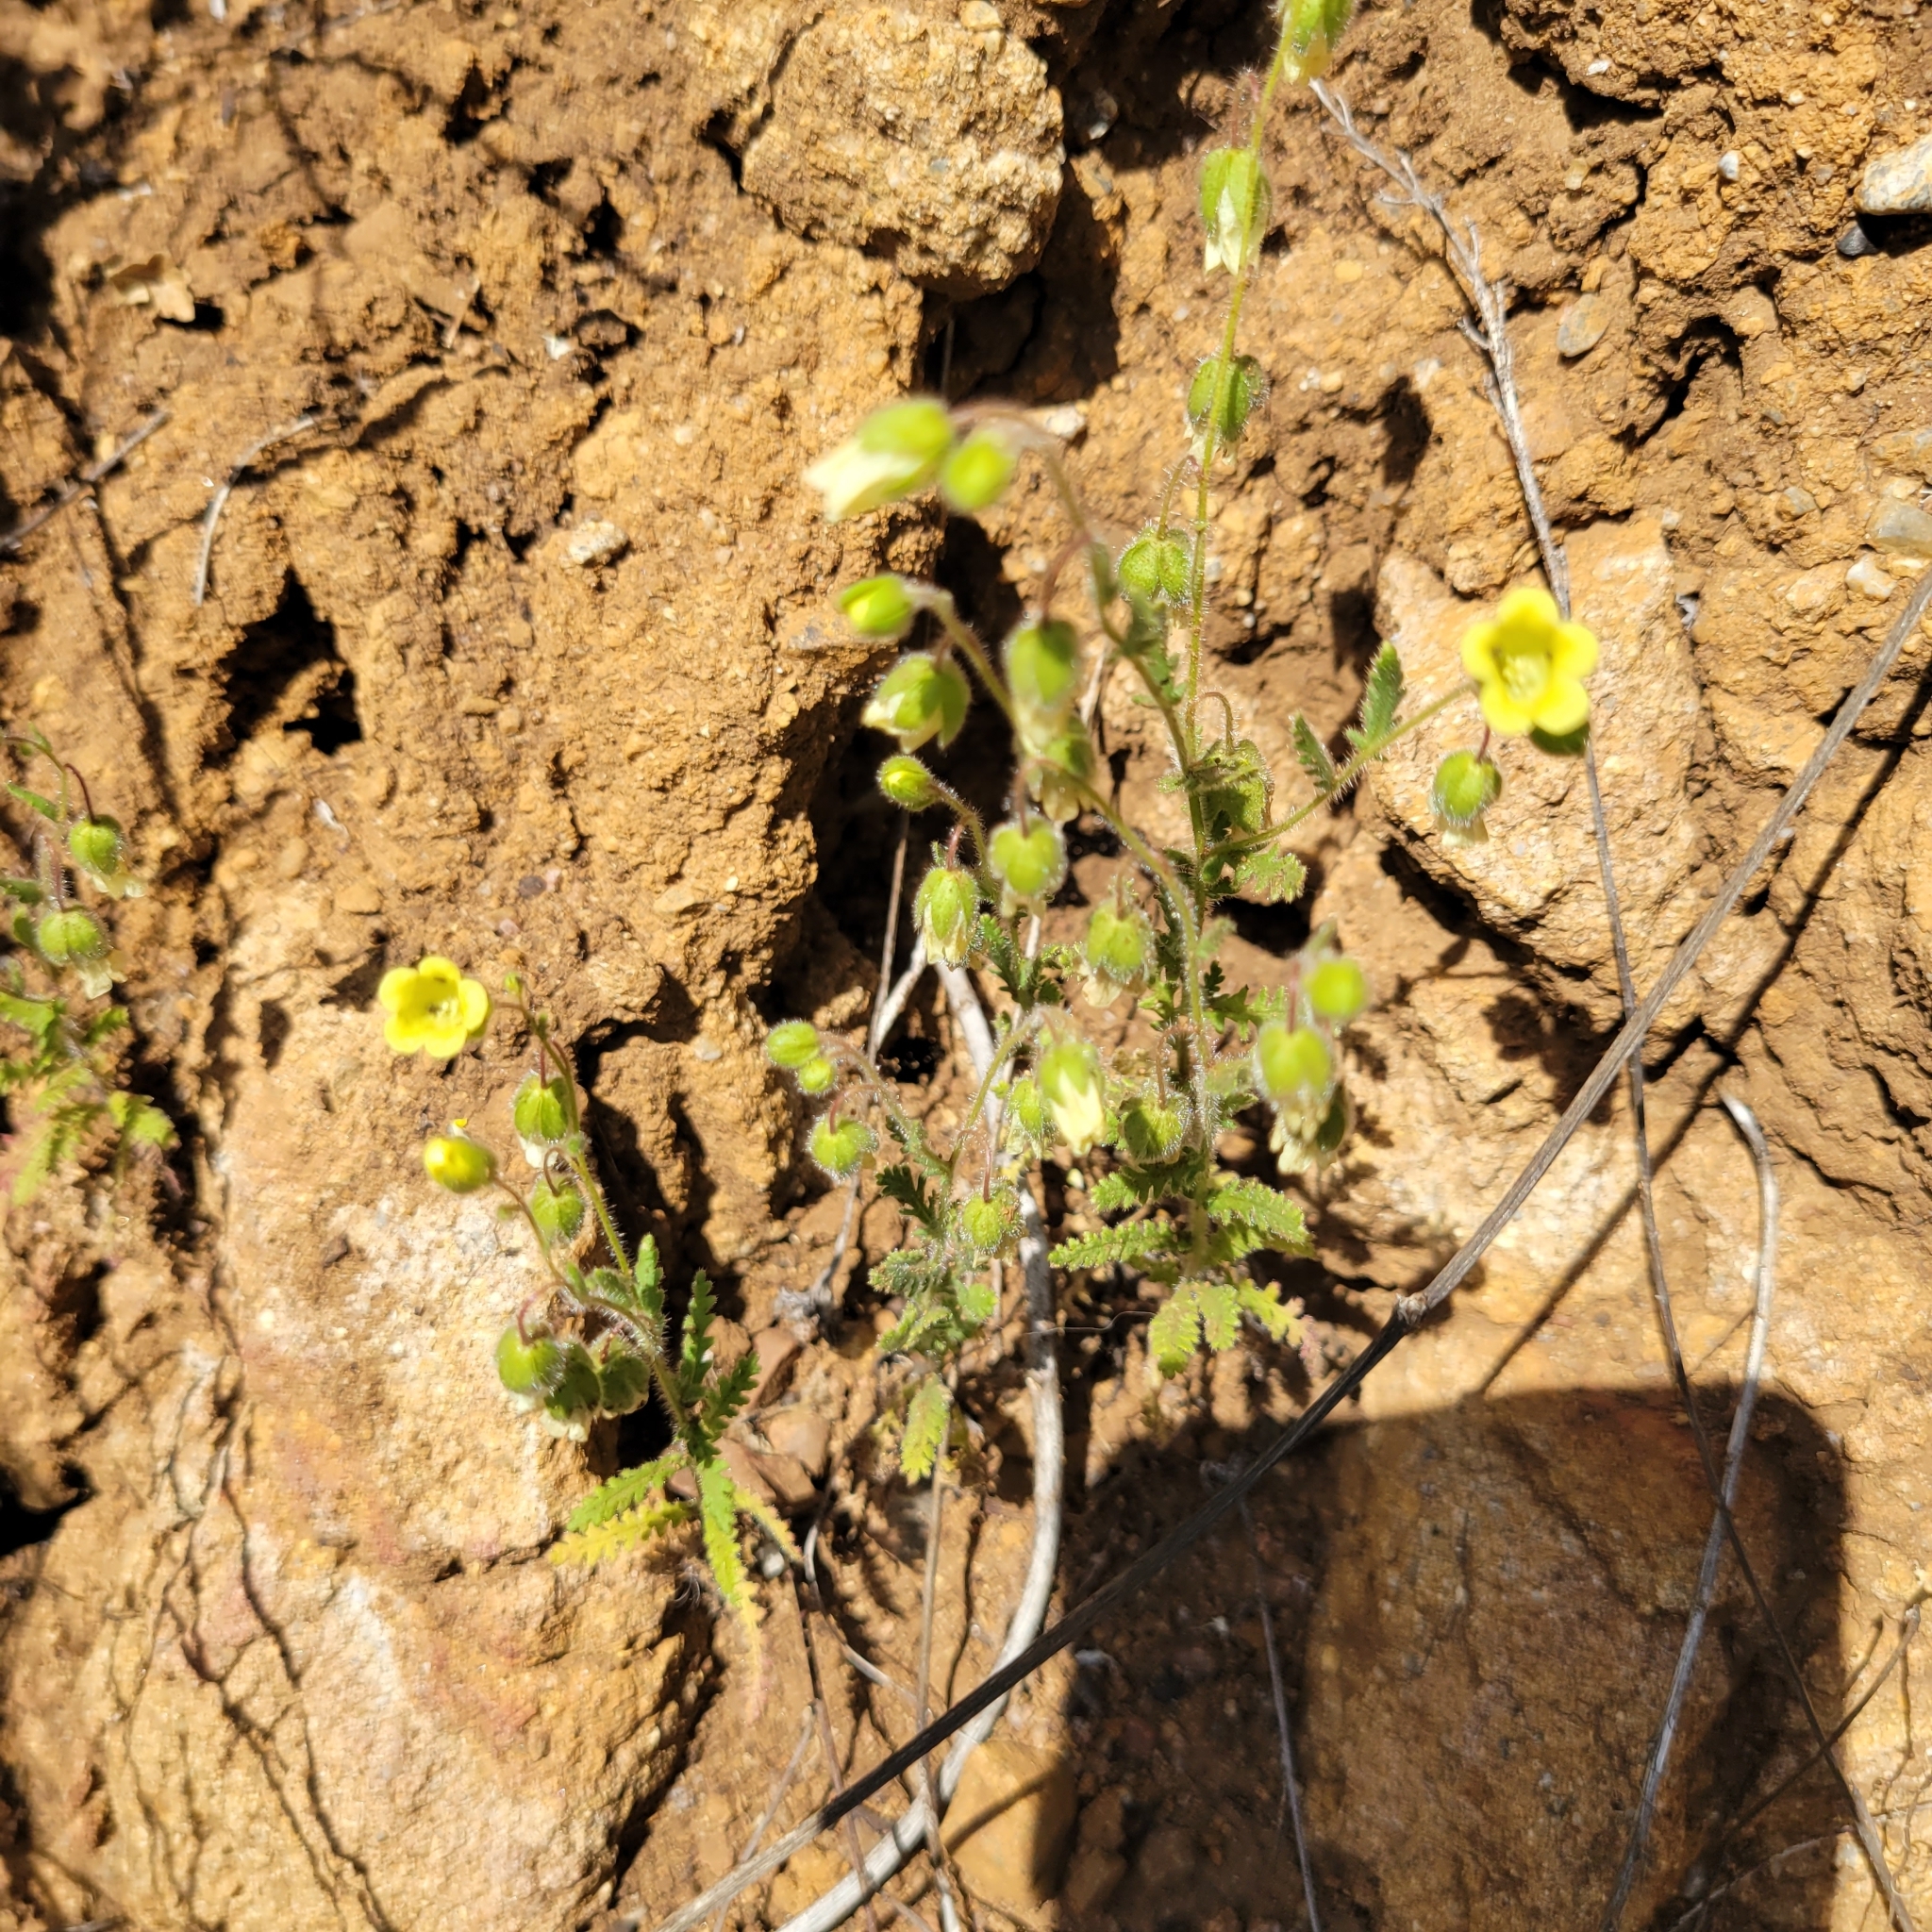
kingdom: Plantae
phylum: Tracheophyta
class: Magnoliopsida
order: Boraginales
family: Hydrophyllaceae
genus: Emmenanthe
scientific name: Emmenanthe penduliflora
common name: Whispering-bells
